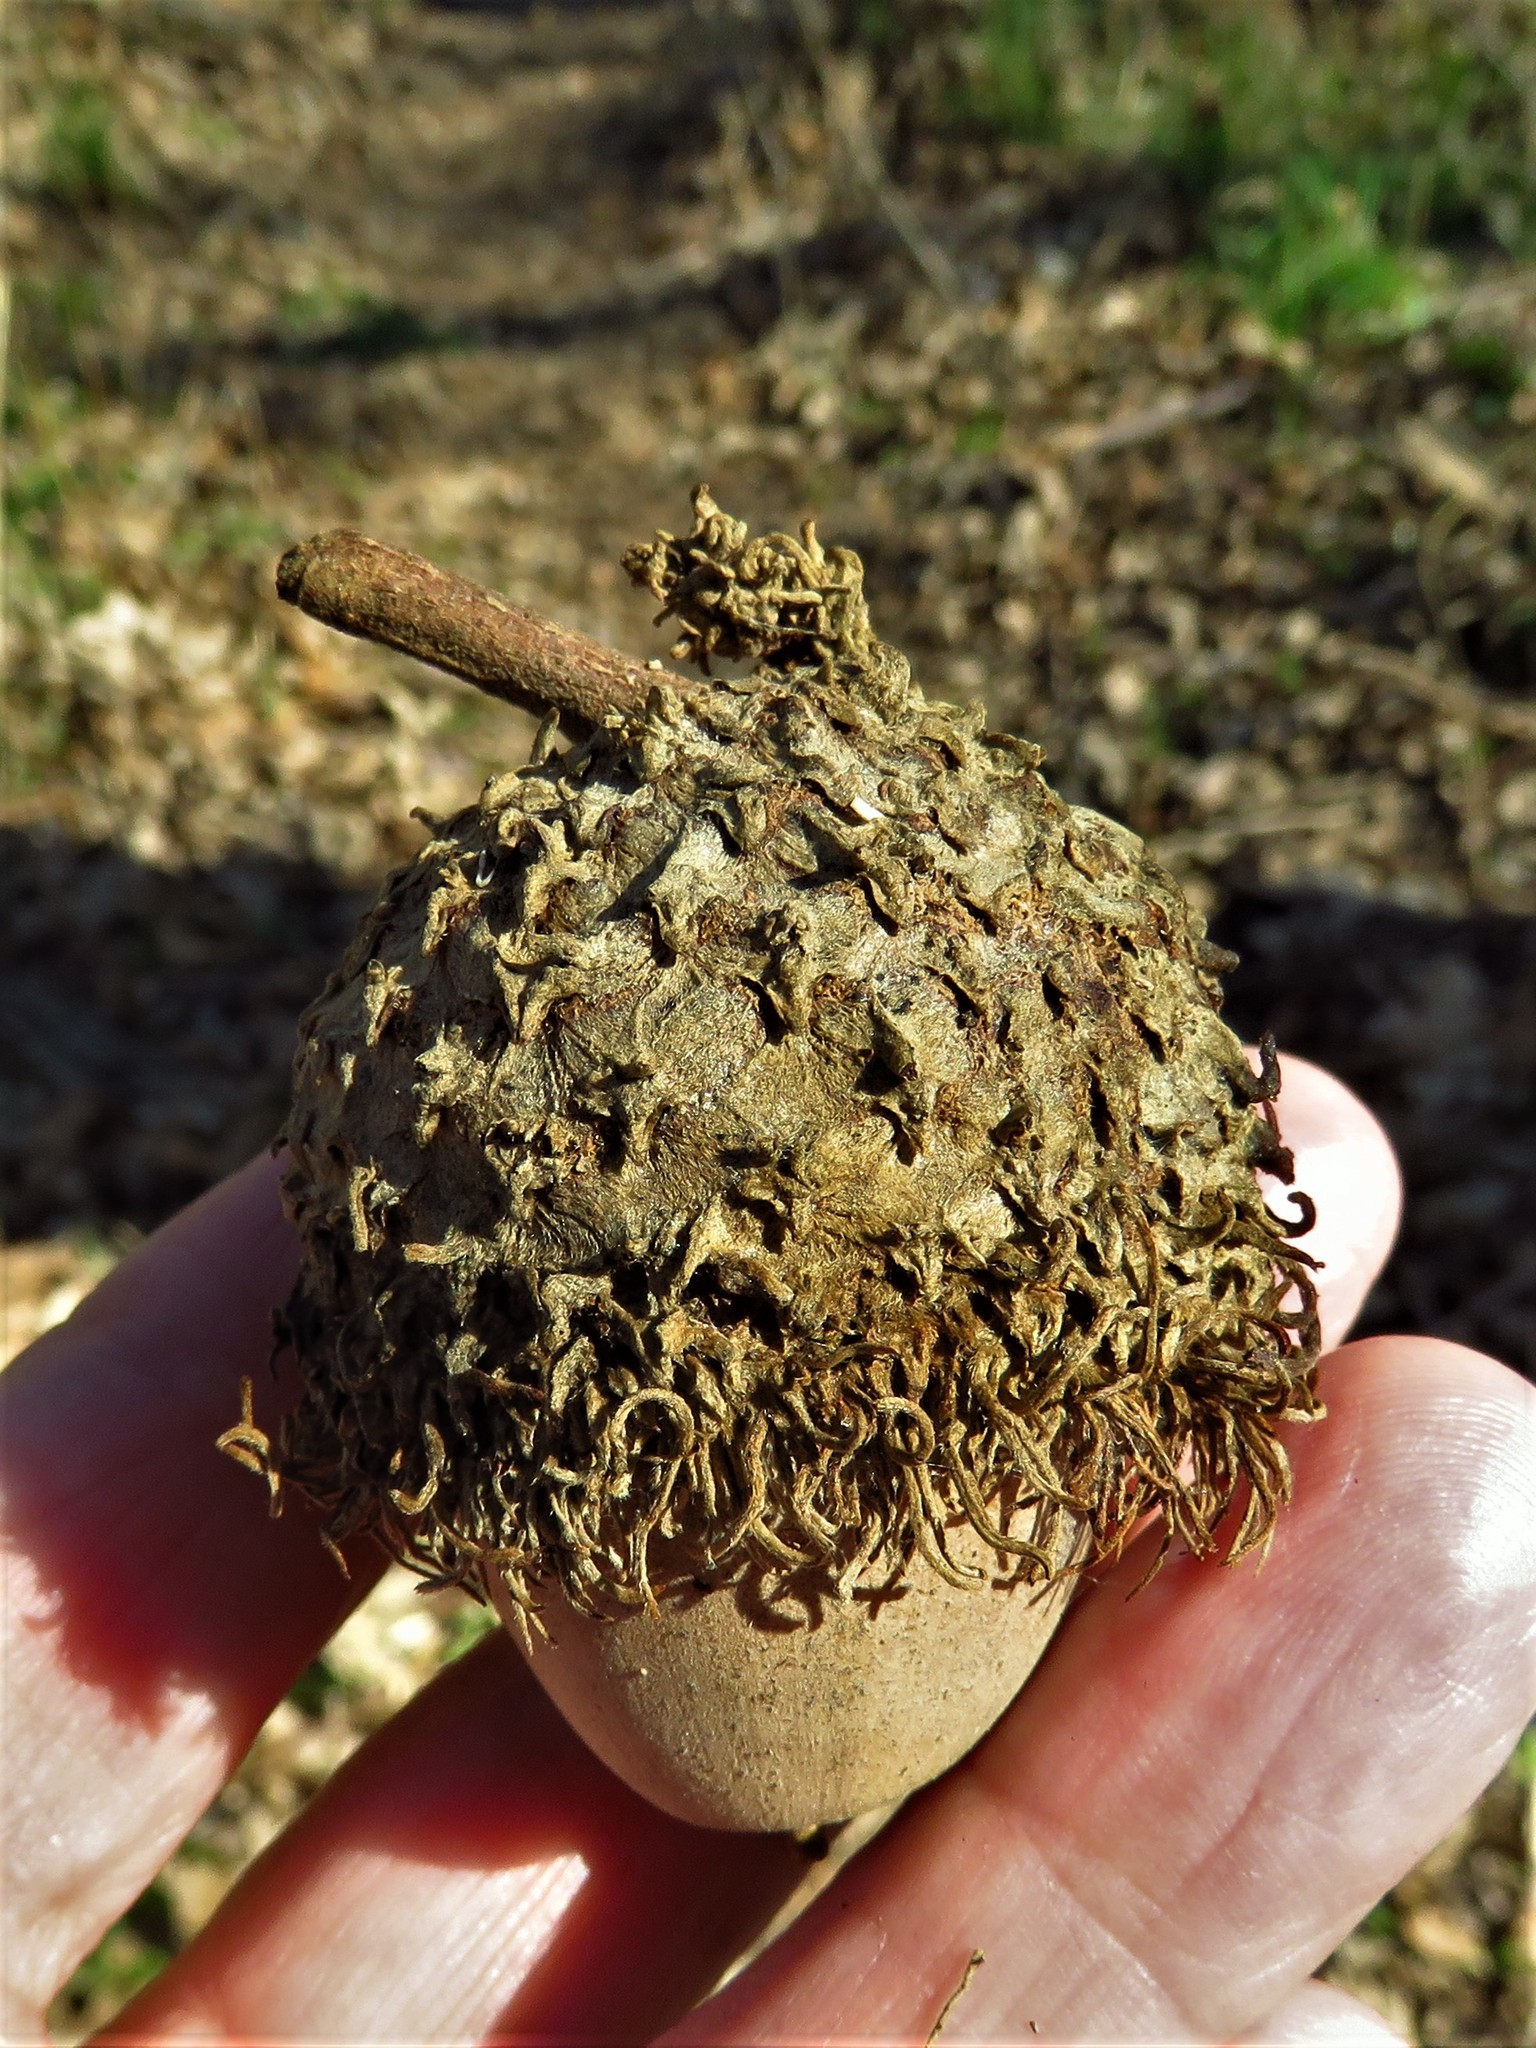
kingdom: Plantae
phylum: Tracheophyta
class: Magnoliopsida
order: Fagales
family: Fagaceae
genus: Quercus
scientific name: Quercus macrocarpa
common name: Bur oak
